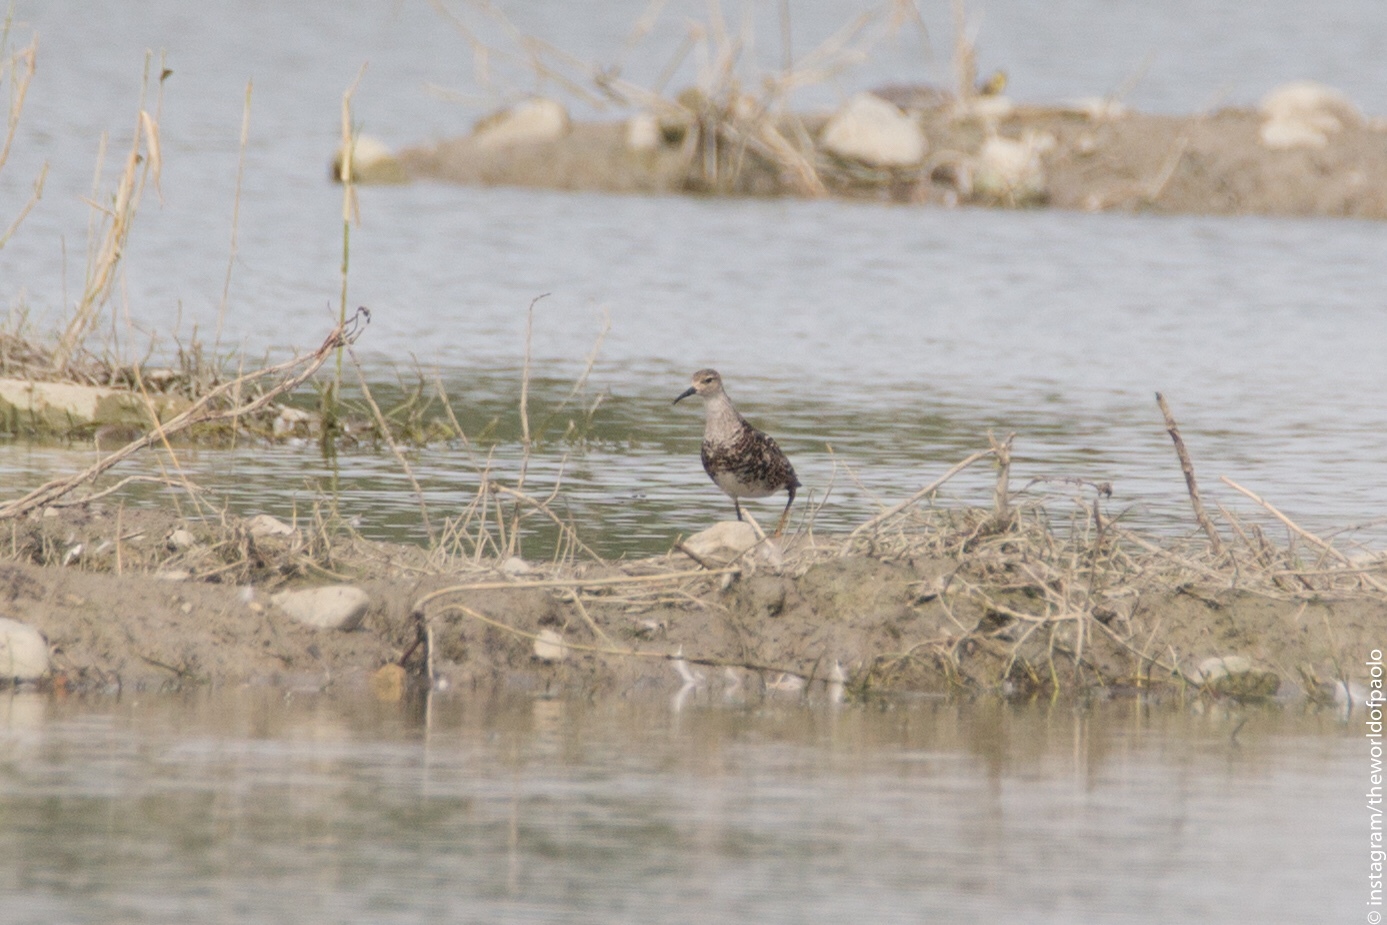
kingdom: Animalia
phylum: Chordata
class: Aves
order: Charadriiformes
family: Scolopacidae
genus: Calidris
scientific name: Calidris pugnax
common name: Ruff
